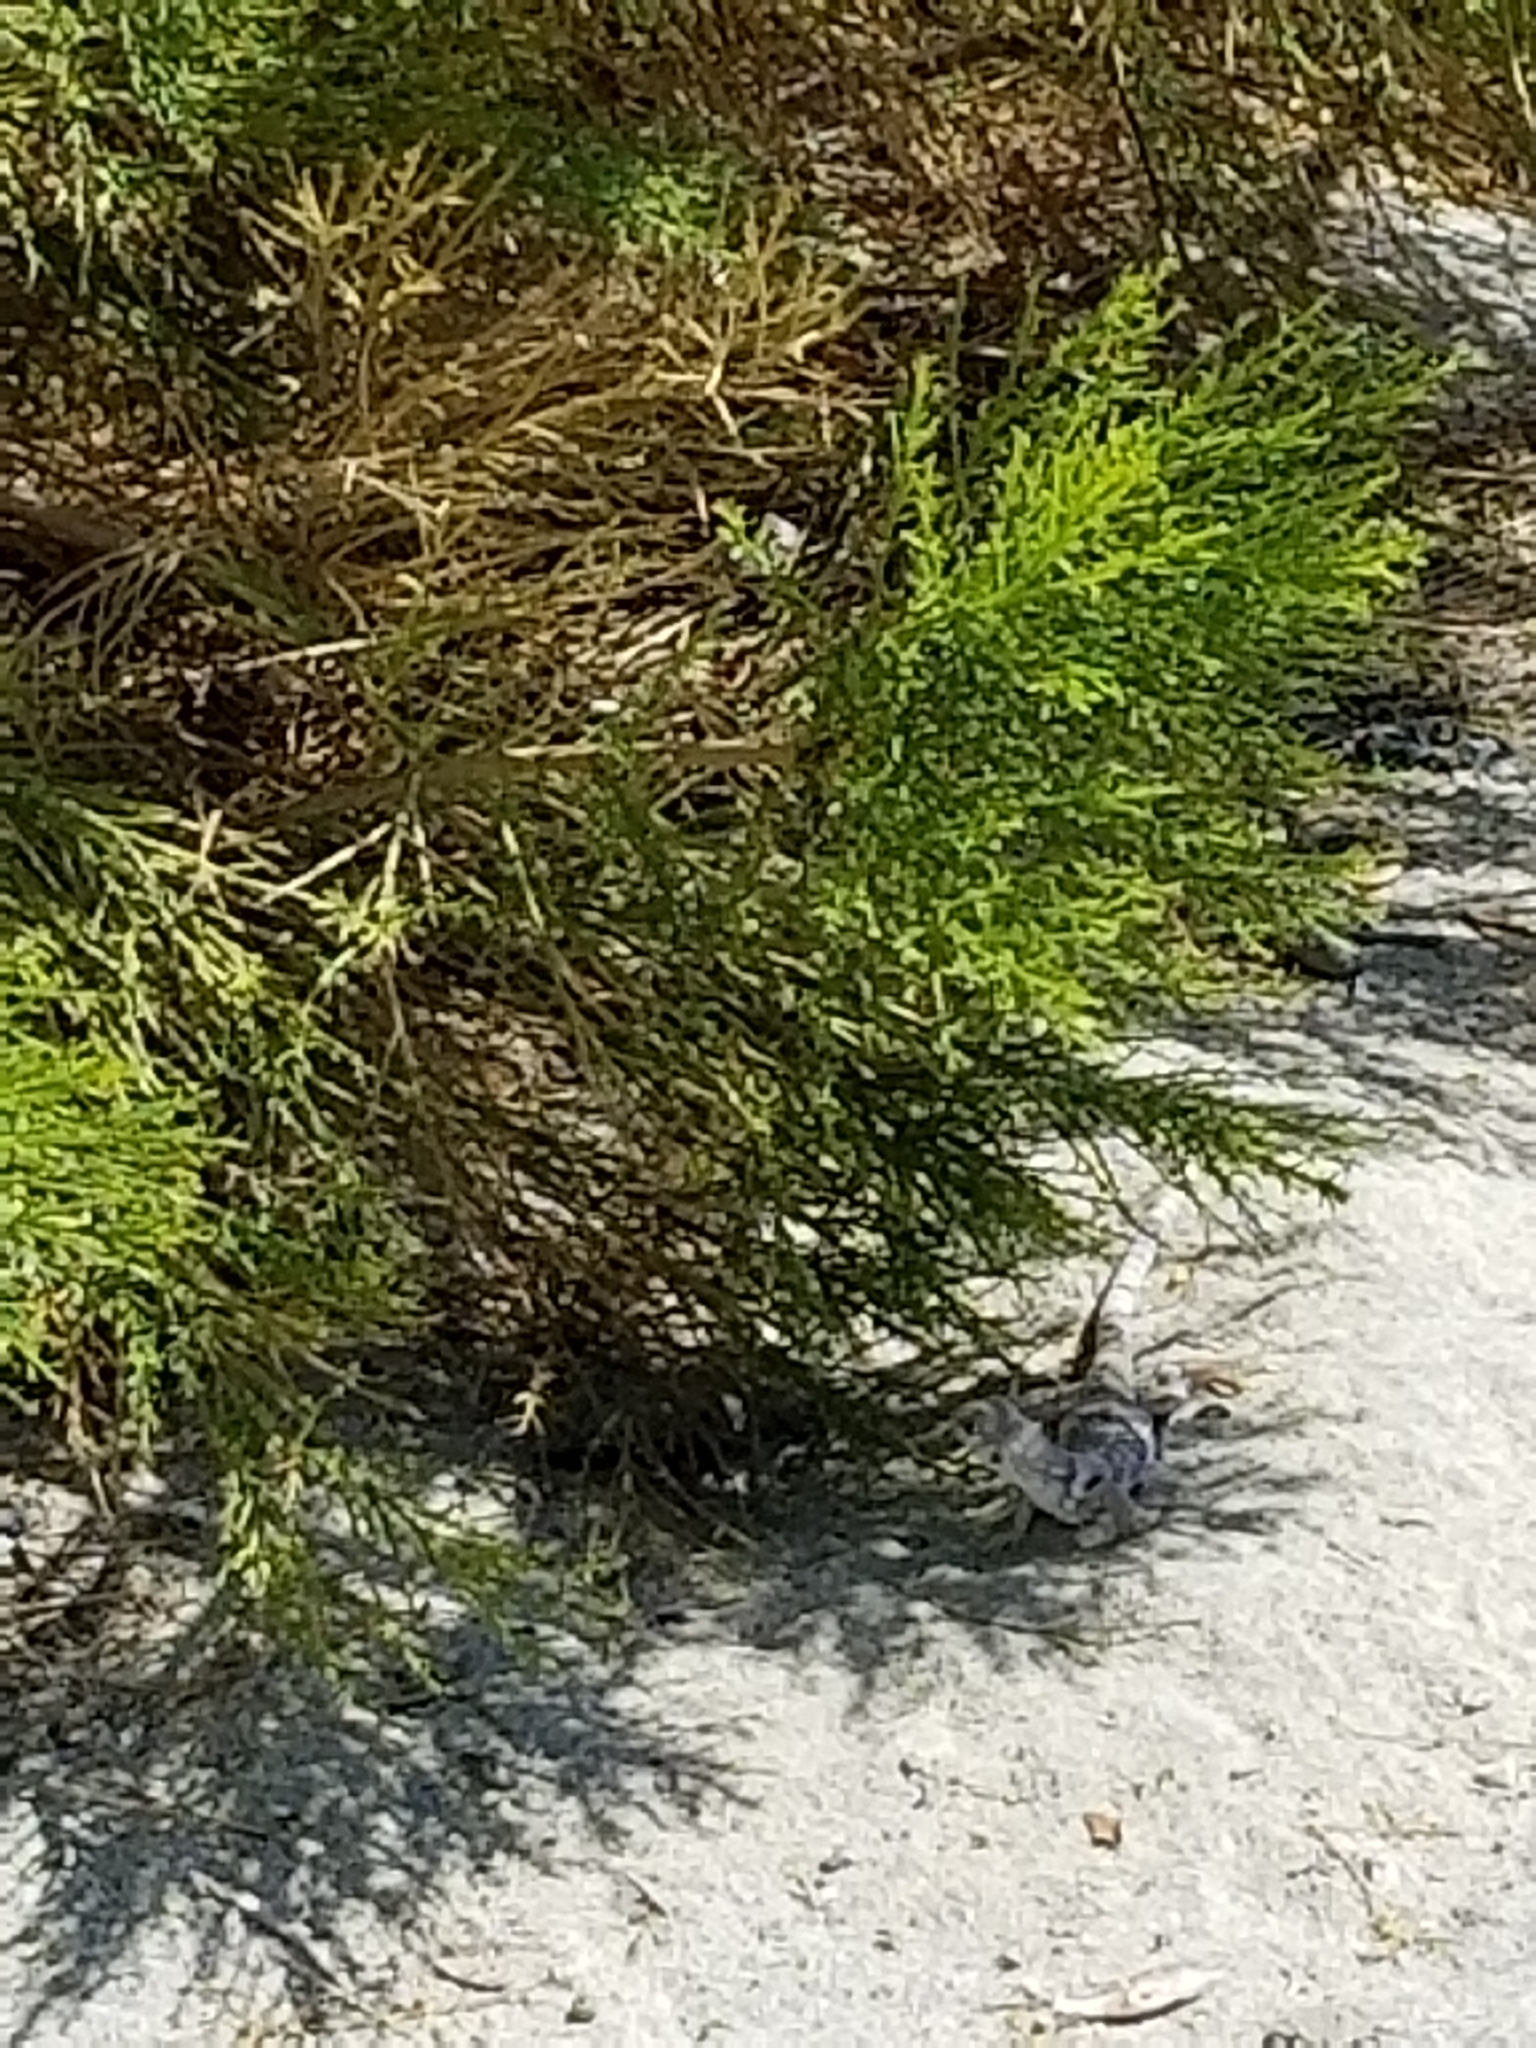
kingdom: Animalia
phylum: Chordata
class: Squamata
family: Iguanidae
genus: Dipsosaurus
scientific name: Dipsosaurus dorsalis
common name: Desert iguana
